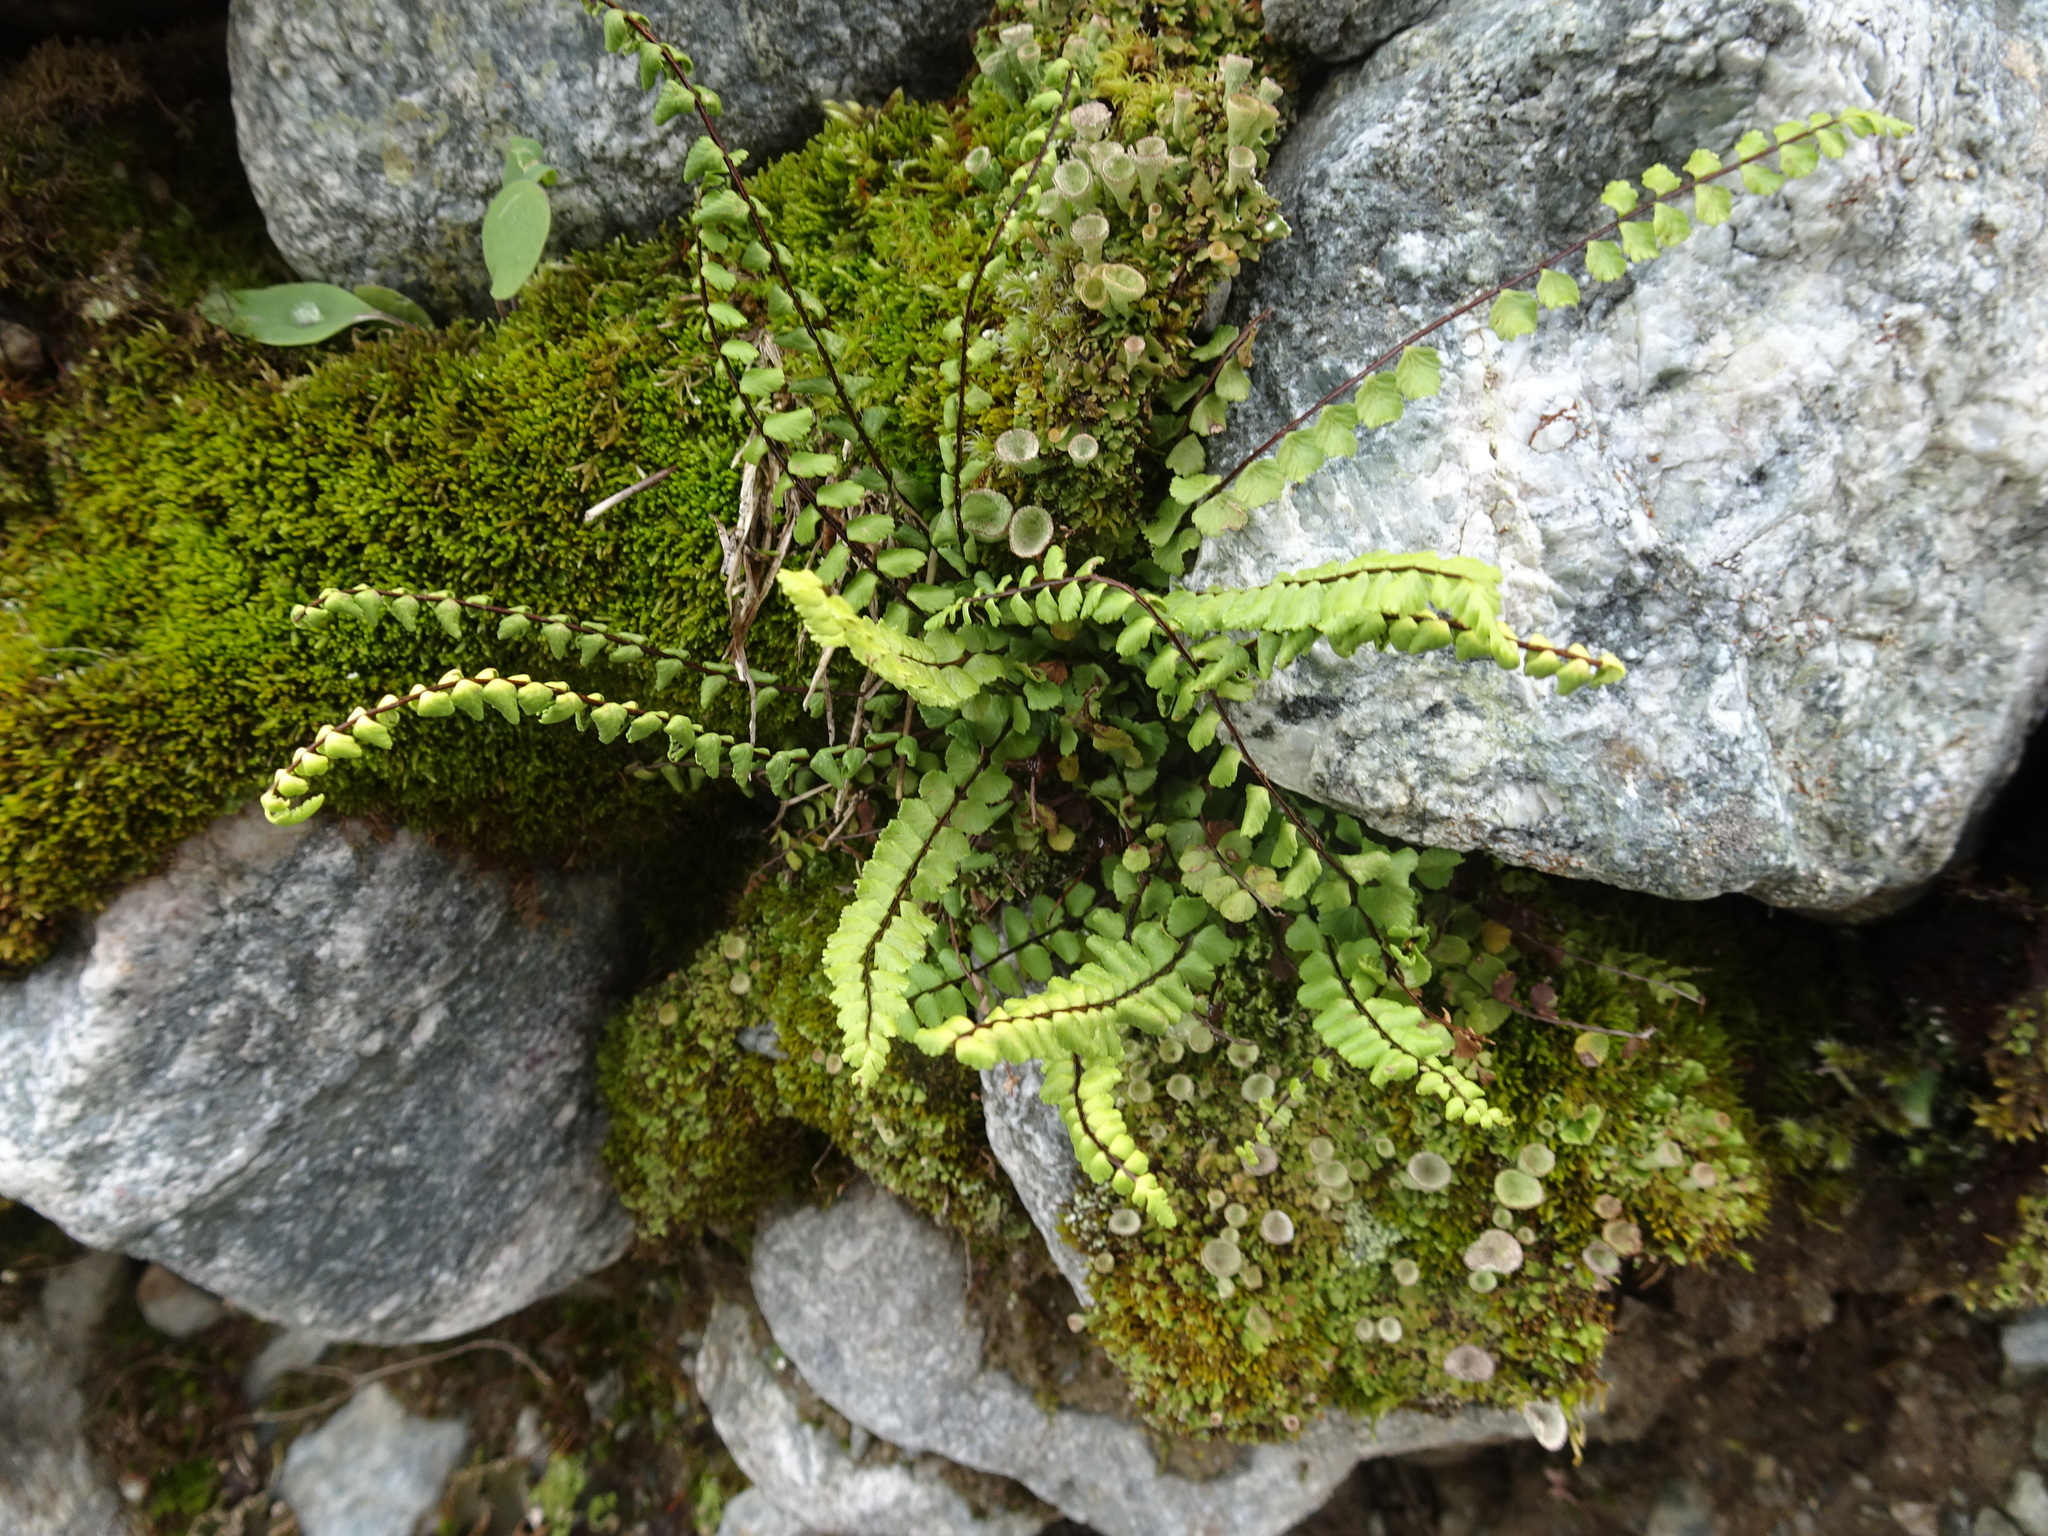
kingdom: Plantae
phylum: Tracheophyta
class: Polypodiopsida
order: Polypodiales
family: Aspleniaceae
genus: Asplenium
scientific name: Asplenium trichomanes
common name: Maidenhair spleenwort
